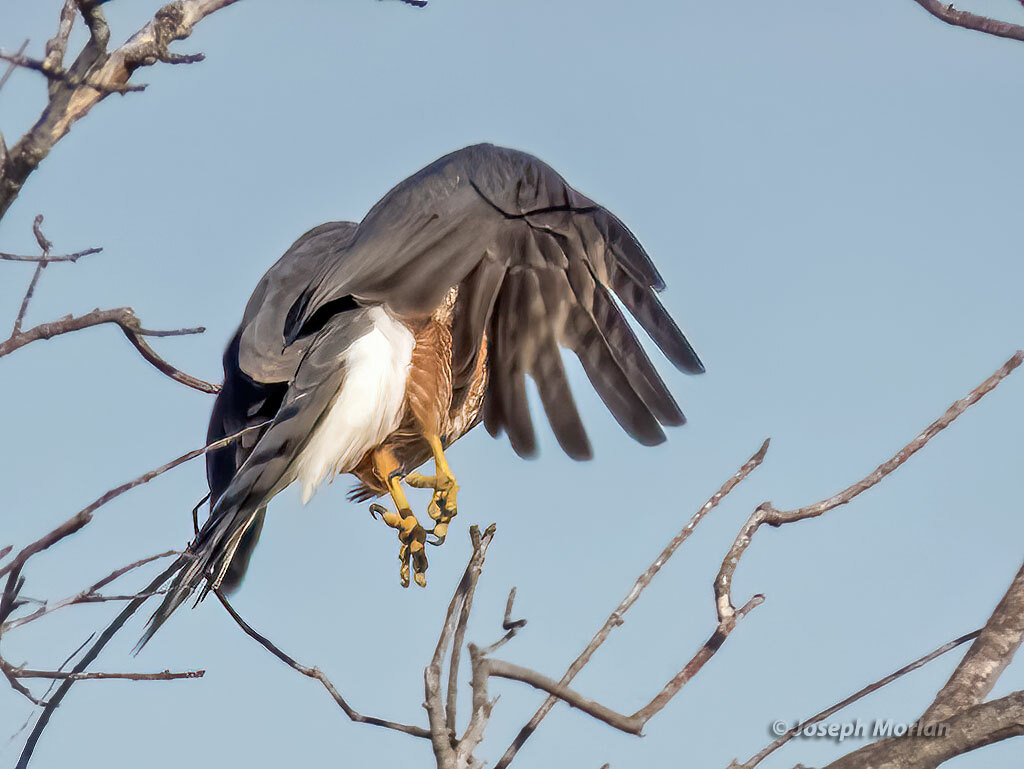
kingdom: Animalia
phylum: Chordata
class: Aves
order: Accipitriformes
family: Accipitridae
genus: Accipiter
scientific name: Accipiter cooperii
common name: Cooper's hawk
